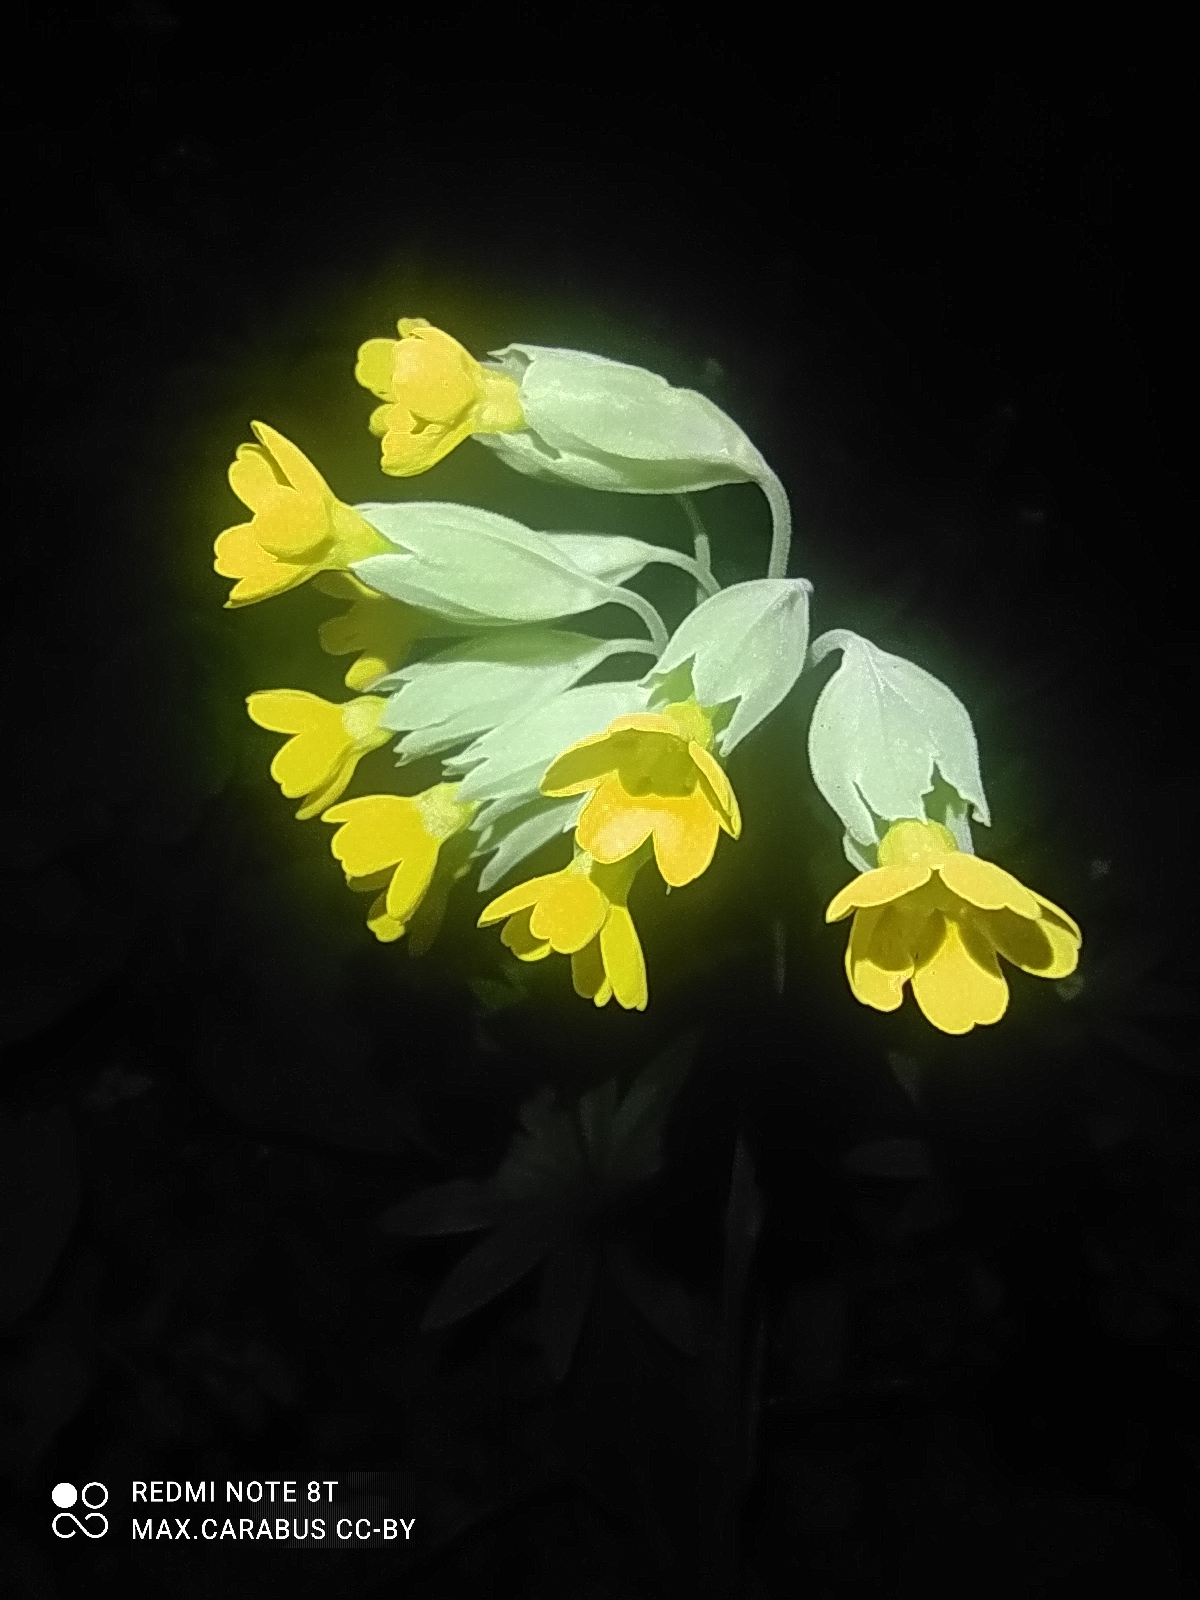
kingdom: Plantae
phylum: Tracheophyta
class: Magnoliopsida
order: Ericales
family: Primulaceae
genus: Primula
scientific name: Primula veris
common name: Cowslip
